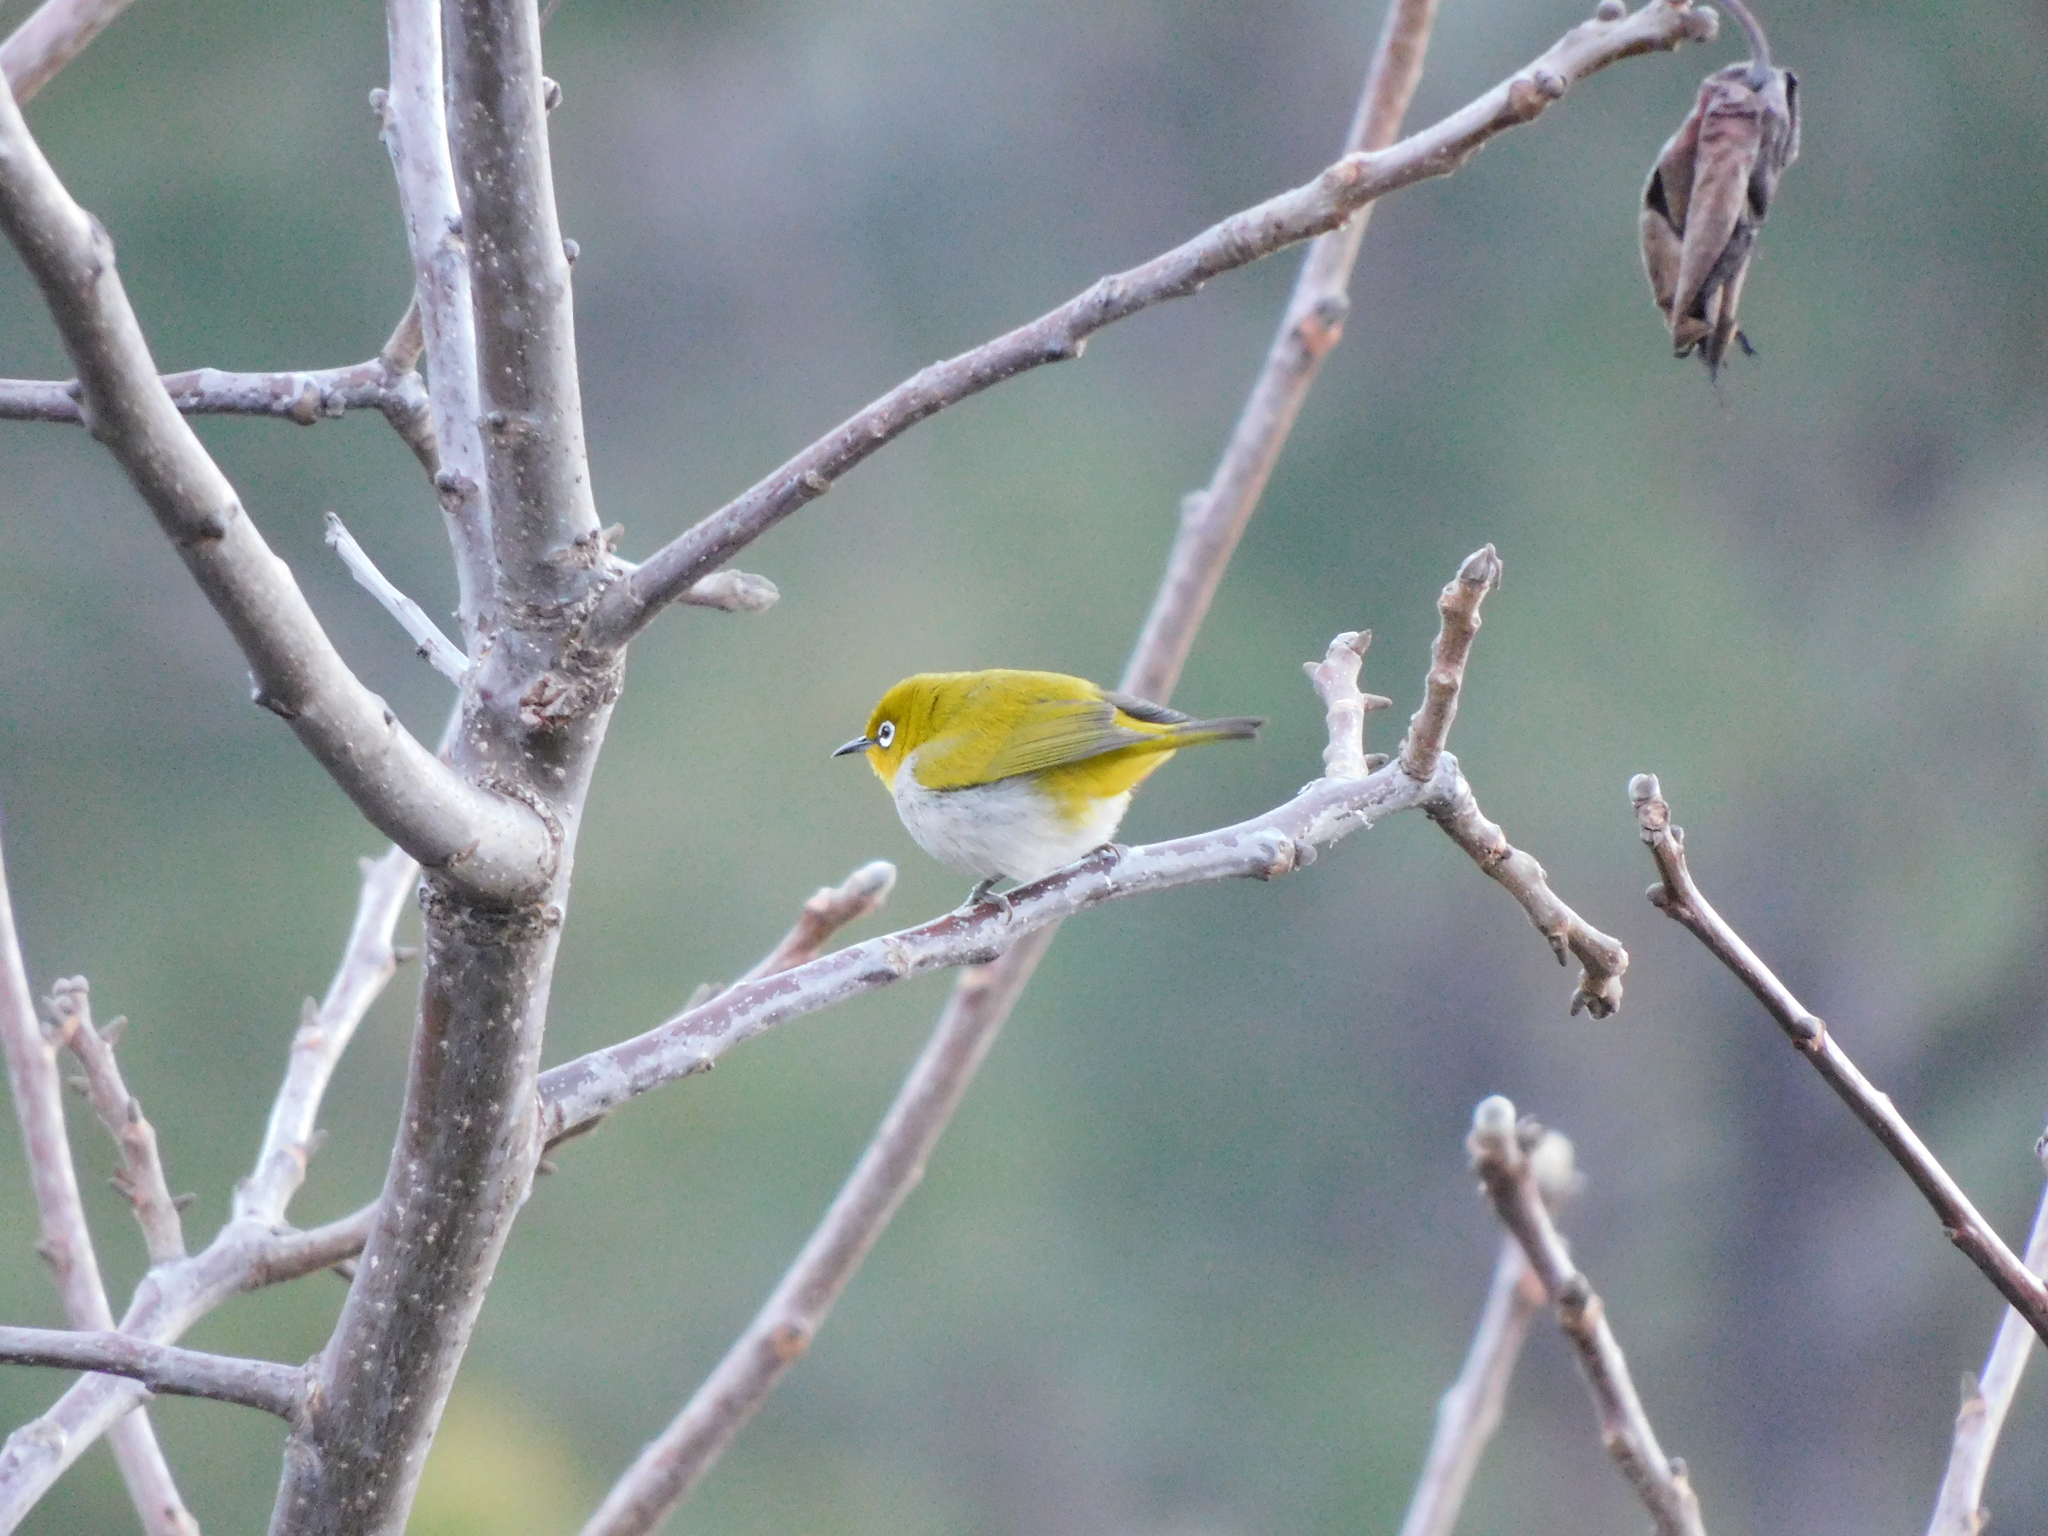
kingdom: Animalia
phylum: Chordata
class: Aves
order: Passeriformes
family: Zosteropidae
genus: Zosterops
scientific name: Zosterops palpebrosus
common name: Oriental white-eye
